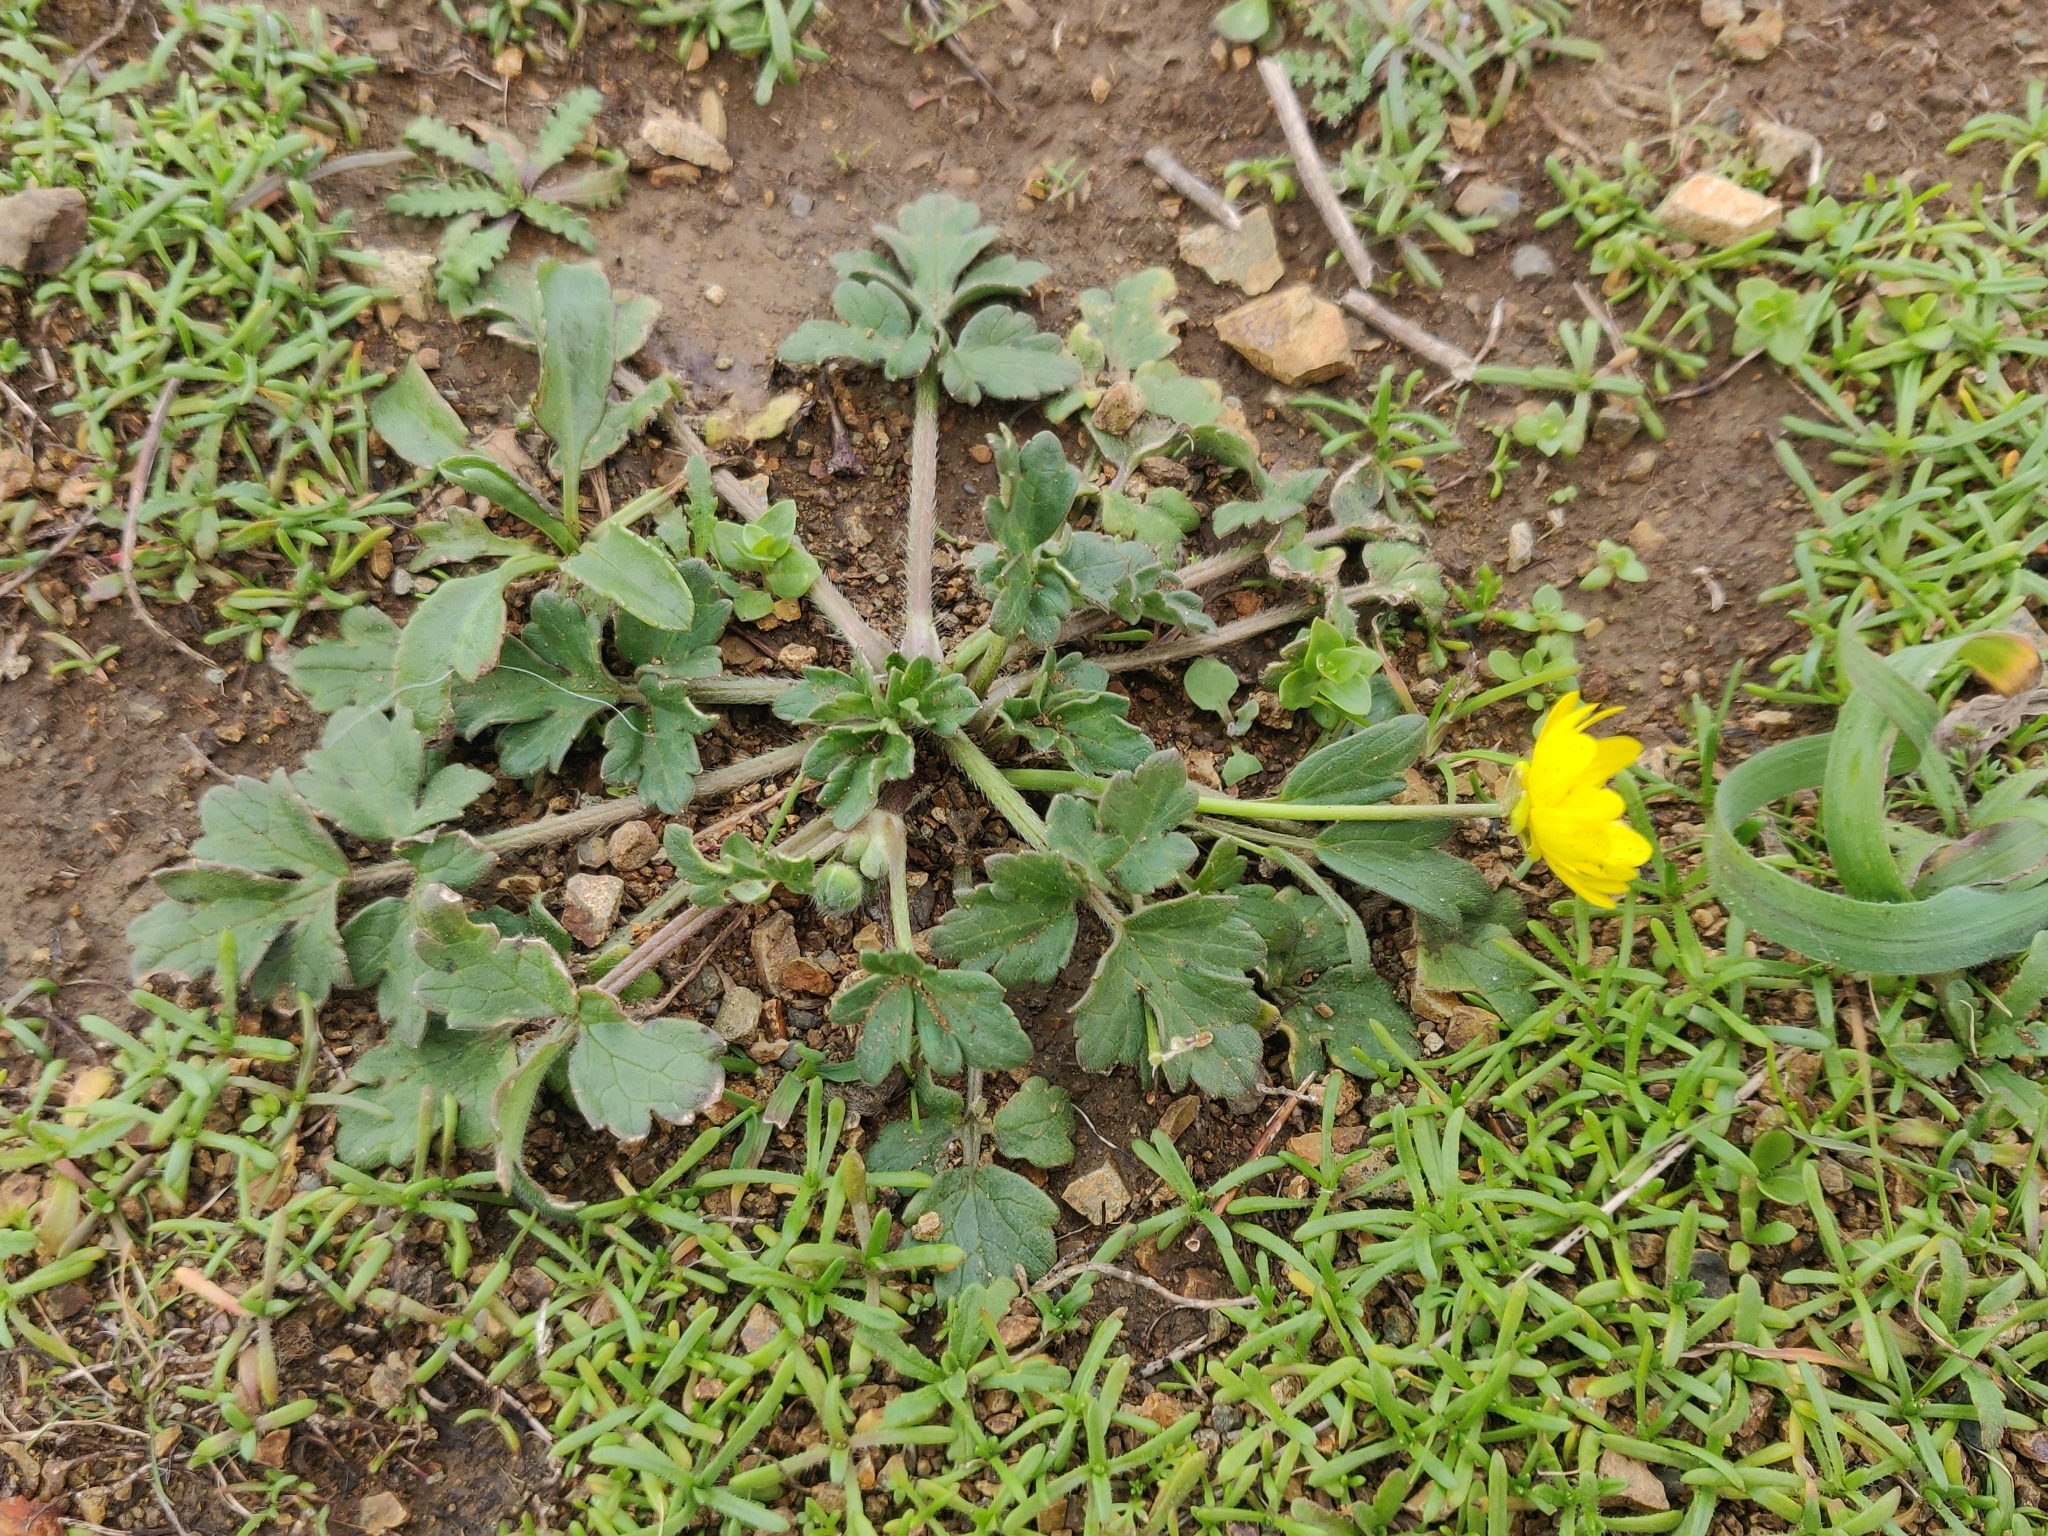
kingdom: Plantae
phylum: Tracheophyta
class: Magnoliopsida
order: Ranunculales
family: Ranunculaceae
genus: Ranunculus
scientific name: Ranunculus californicus
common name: California buttercup
